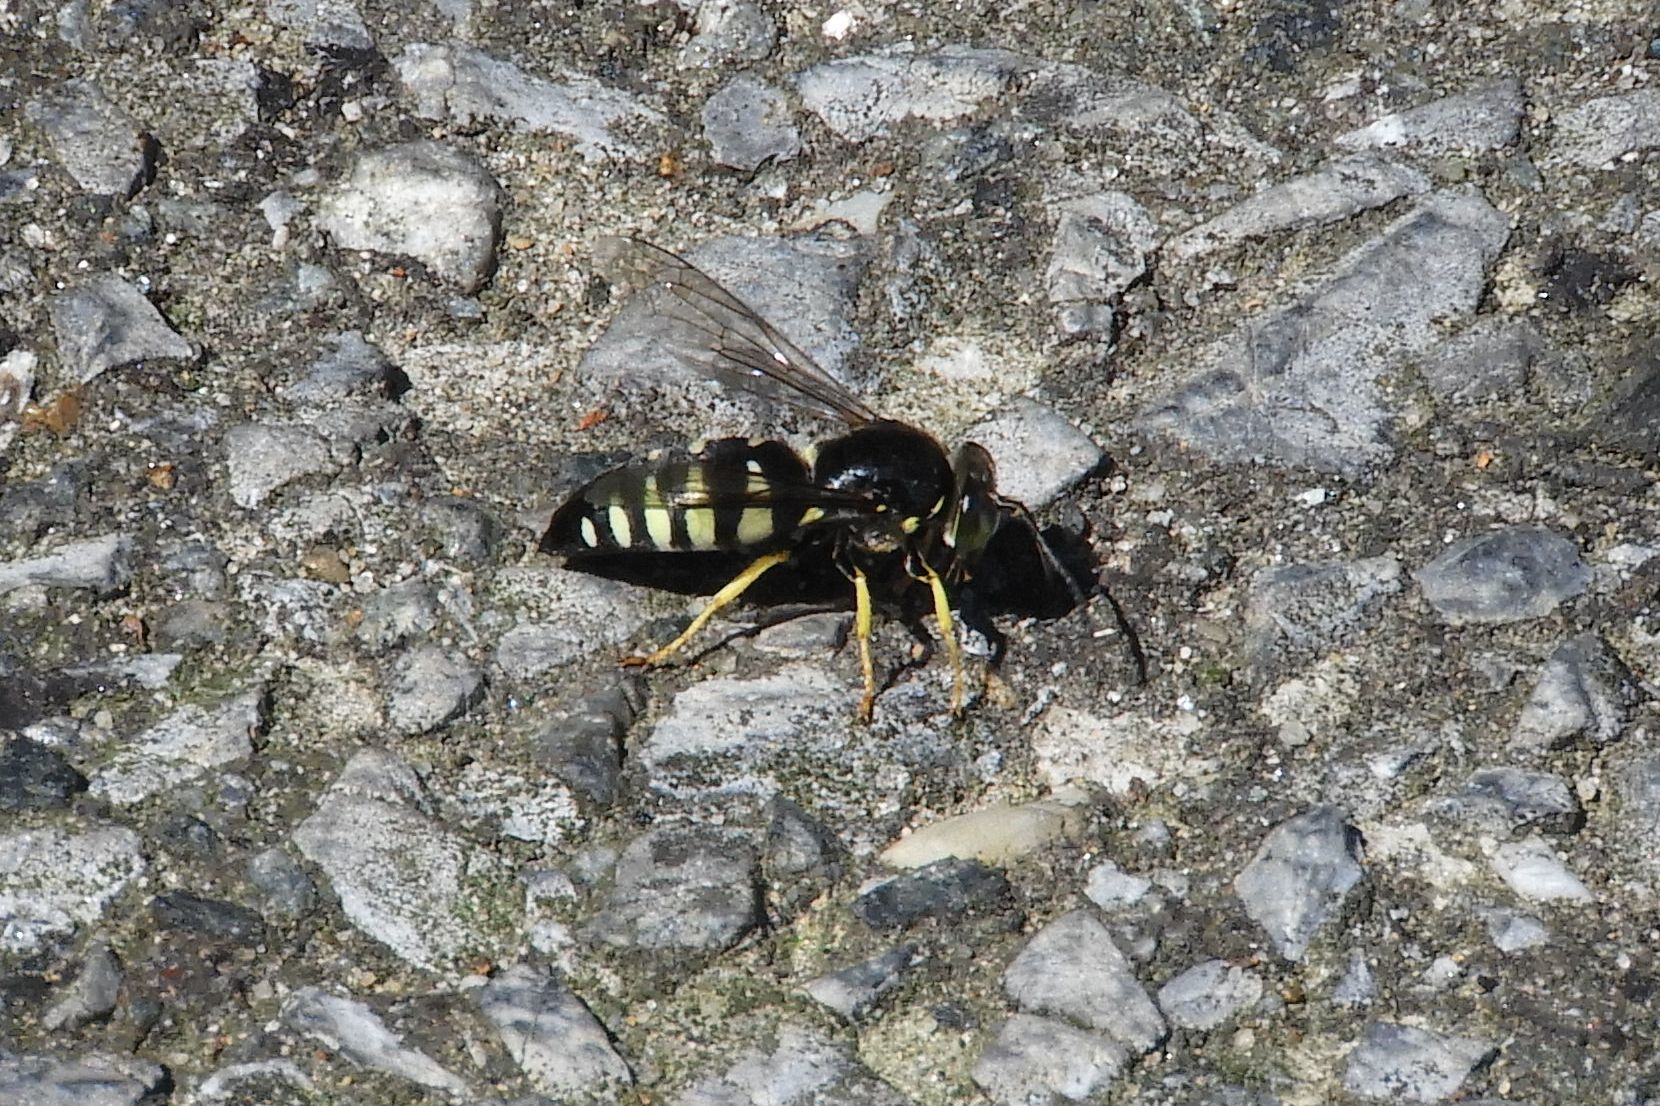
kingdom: Animalia
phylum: Arthropoda
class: Insecta
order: Hymenoptera
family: Crabronidae
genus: Bicyrtes
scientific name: Bicyrtes quadrifasciatus
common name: Four-banded stink bug hunter wasp
